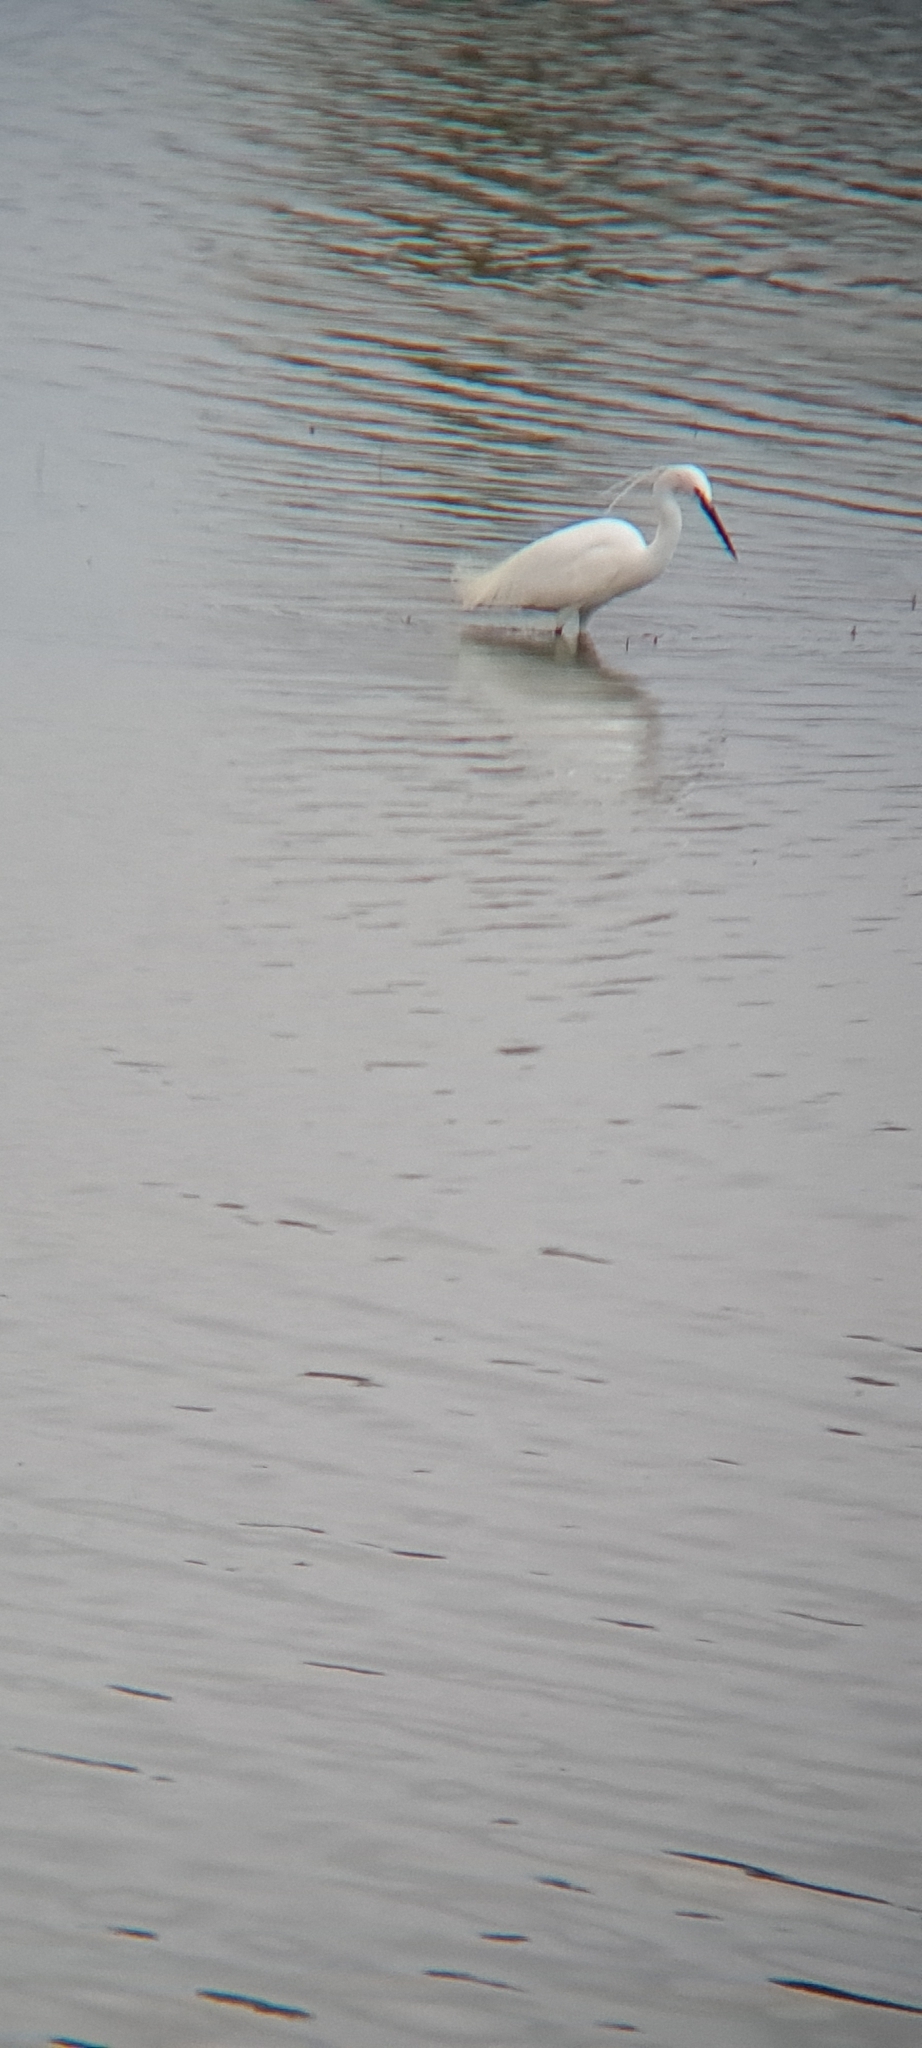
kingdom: Animalia
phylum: Chordata
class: Aves
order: Pelecaniformes
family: Ardeidae
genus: Egretta
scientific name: Egretta garzetta
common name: Little egret
